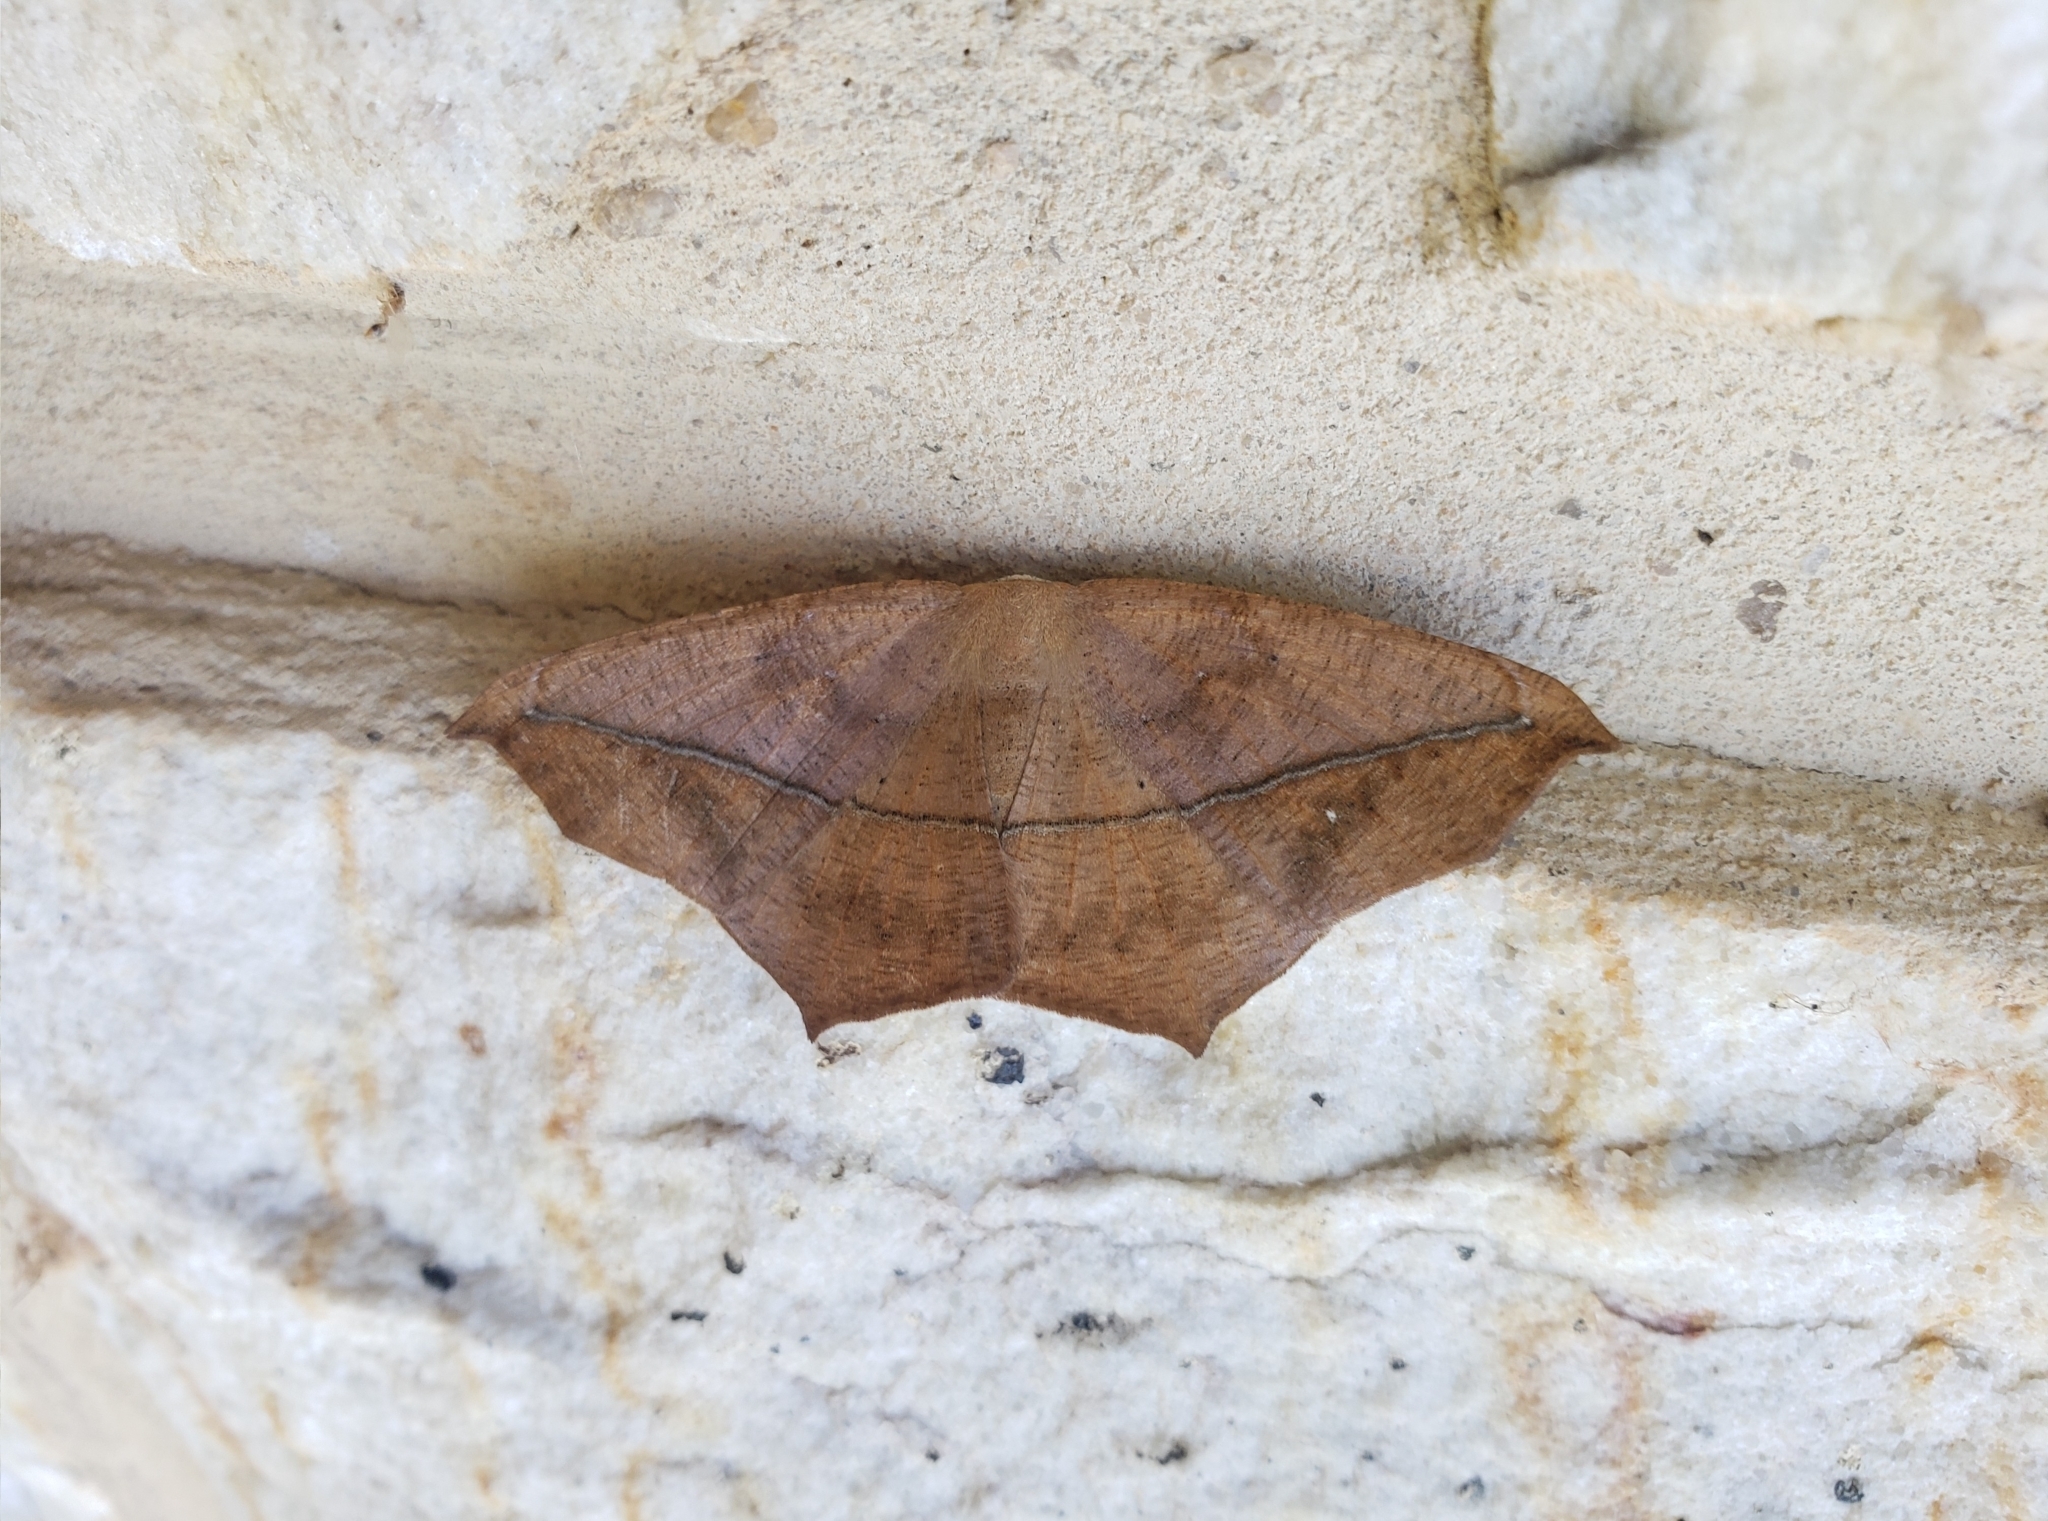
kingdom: Animalia
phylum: Arthropoda
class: Insecta
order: Lepidoptera
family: Geometridae
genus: Prochoerodes
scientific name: Prochoerodes lineola
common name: Large maple spanworm
